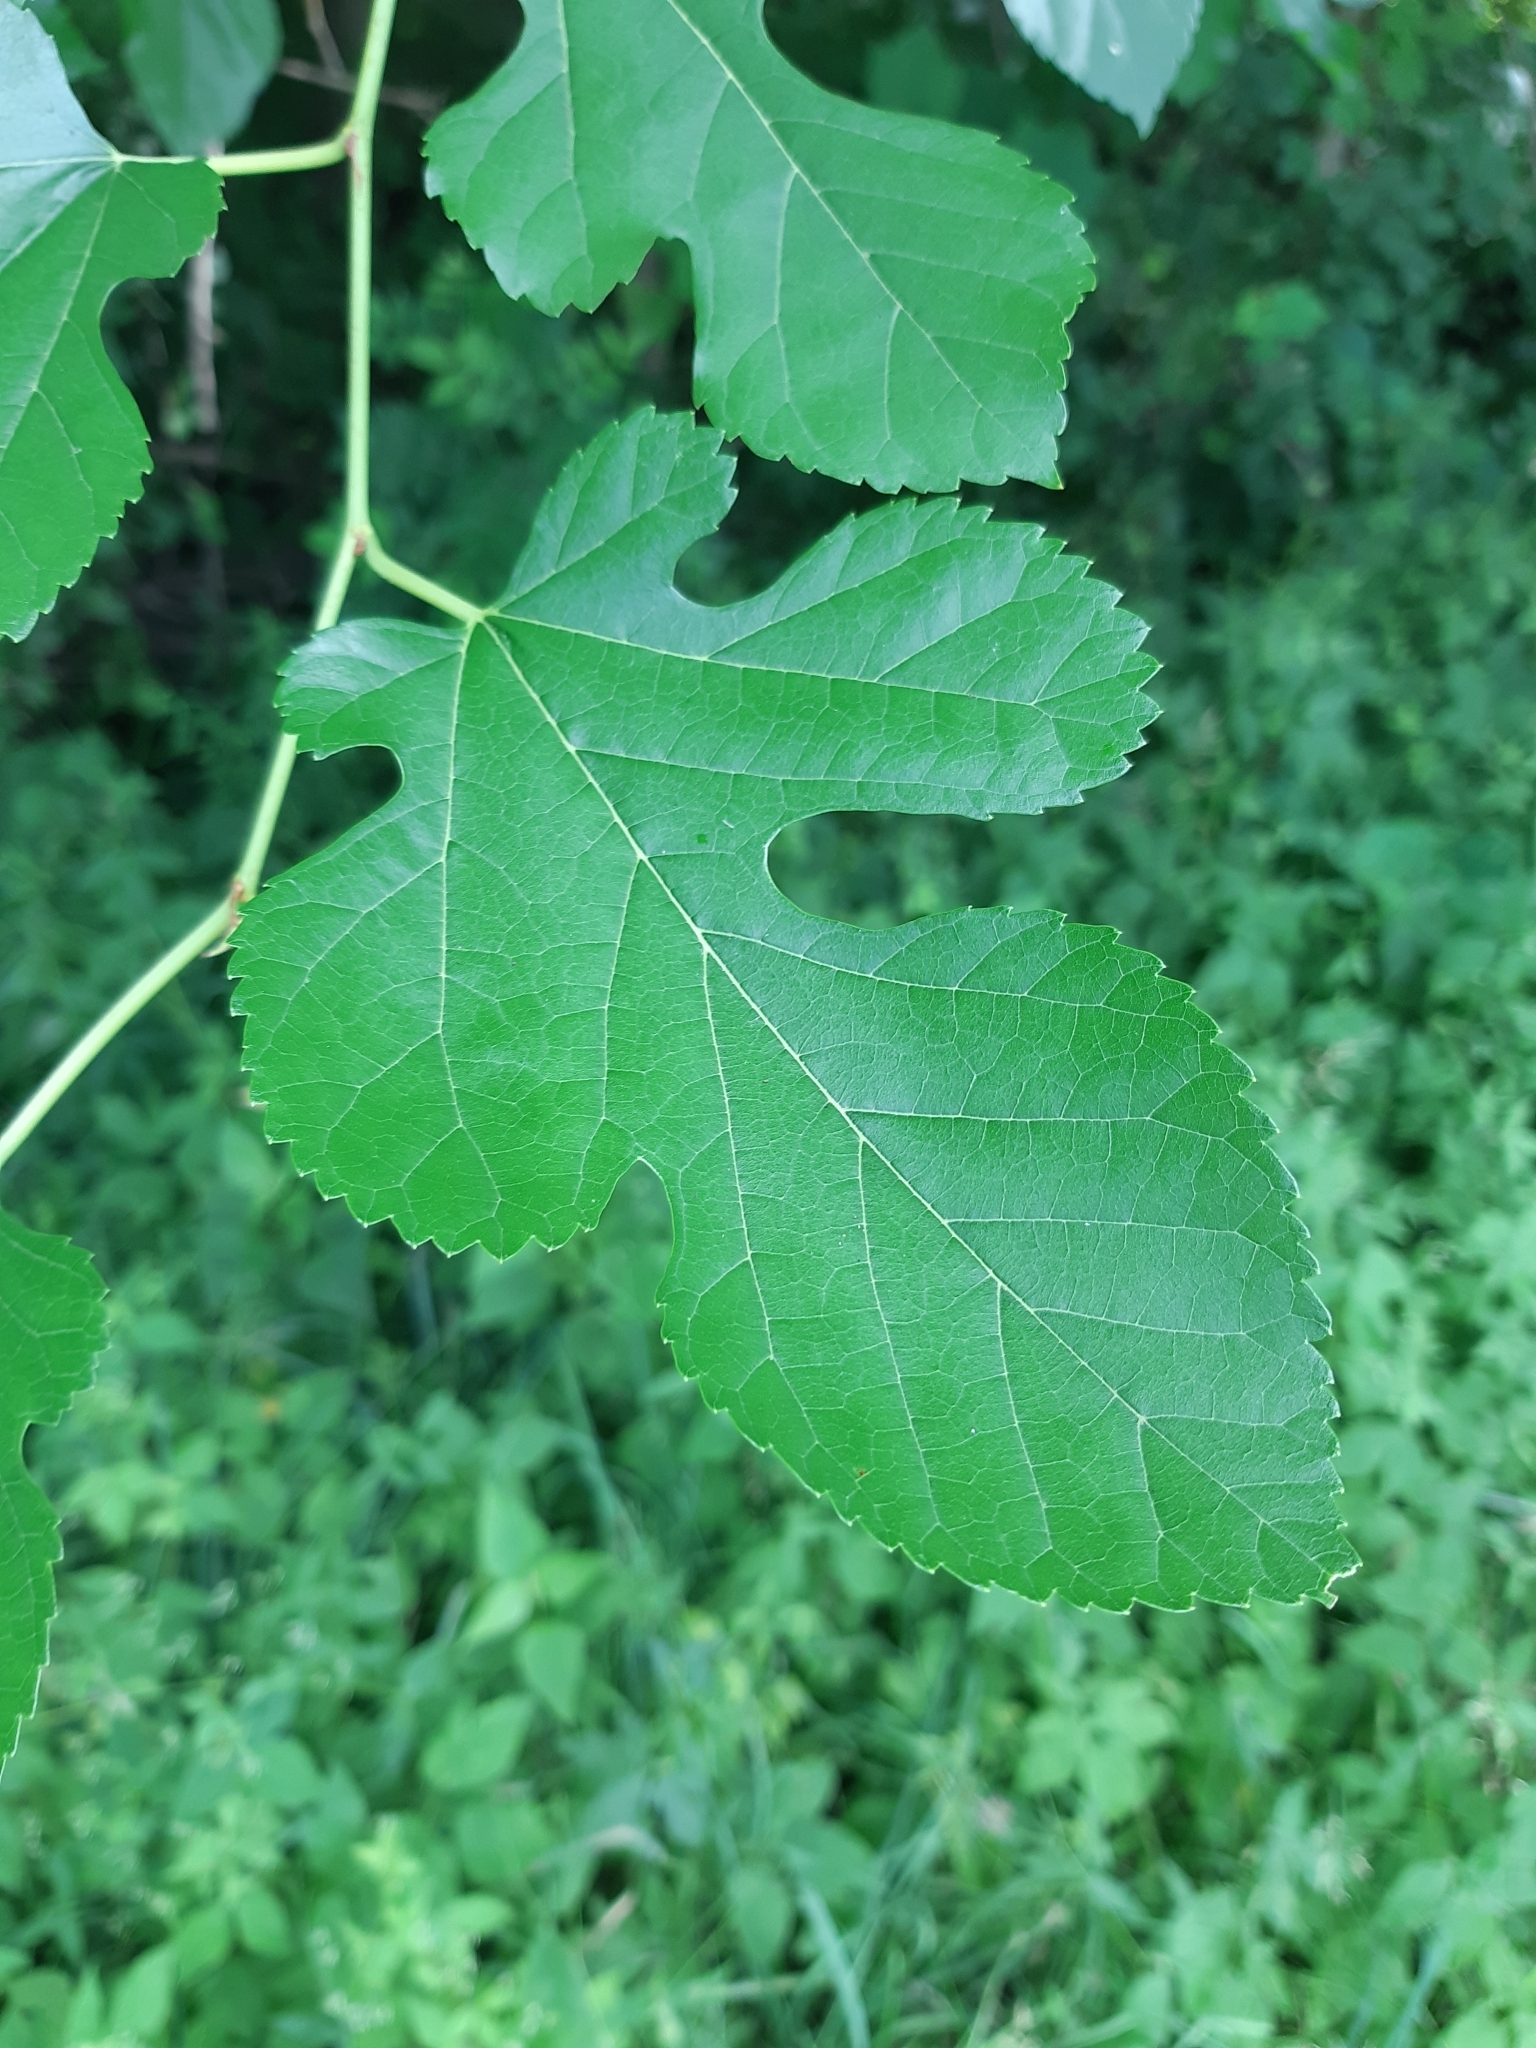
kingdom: Plantae
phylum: Tracheophyta
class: Magnoliopsida
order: Rosales
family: Moraceae
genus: Morus
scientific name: Morus alba
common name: White mulberry
